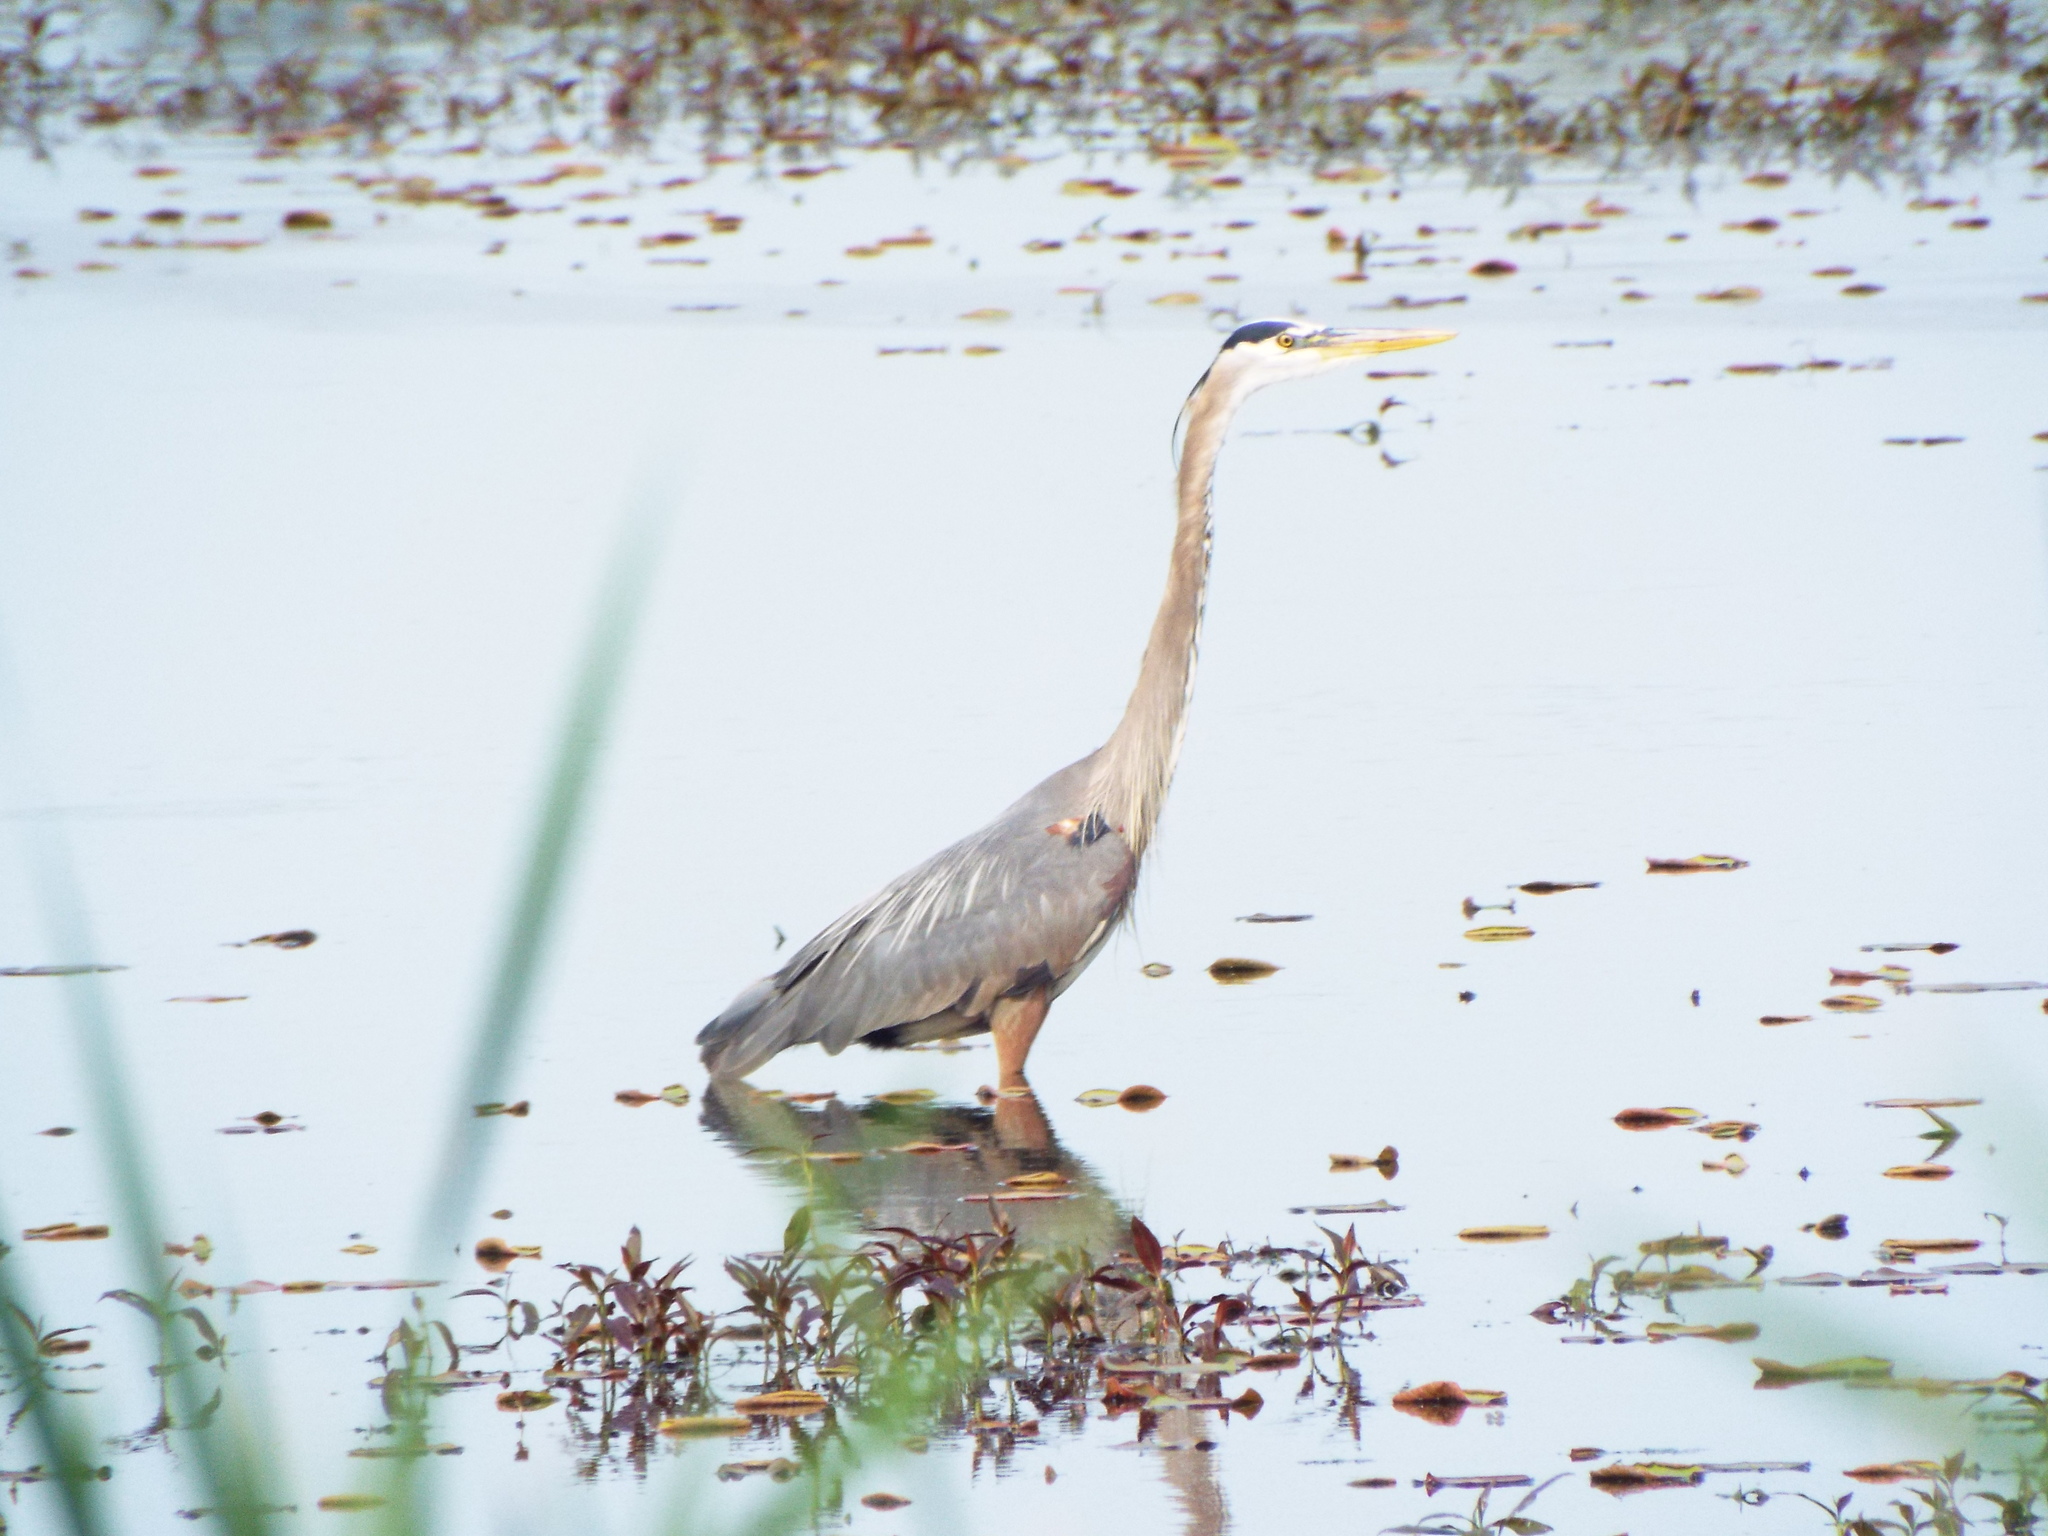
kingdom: Animalia
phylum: Chordata
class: Aves
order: Pelecaniformes
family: Ardeidae
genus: Ardea
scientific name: Ardea herodias
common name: Great blue heron
